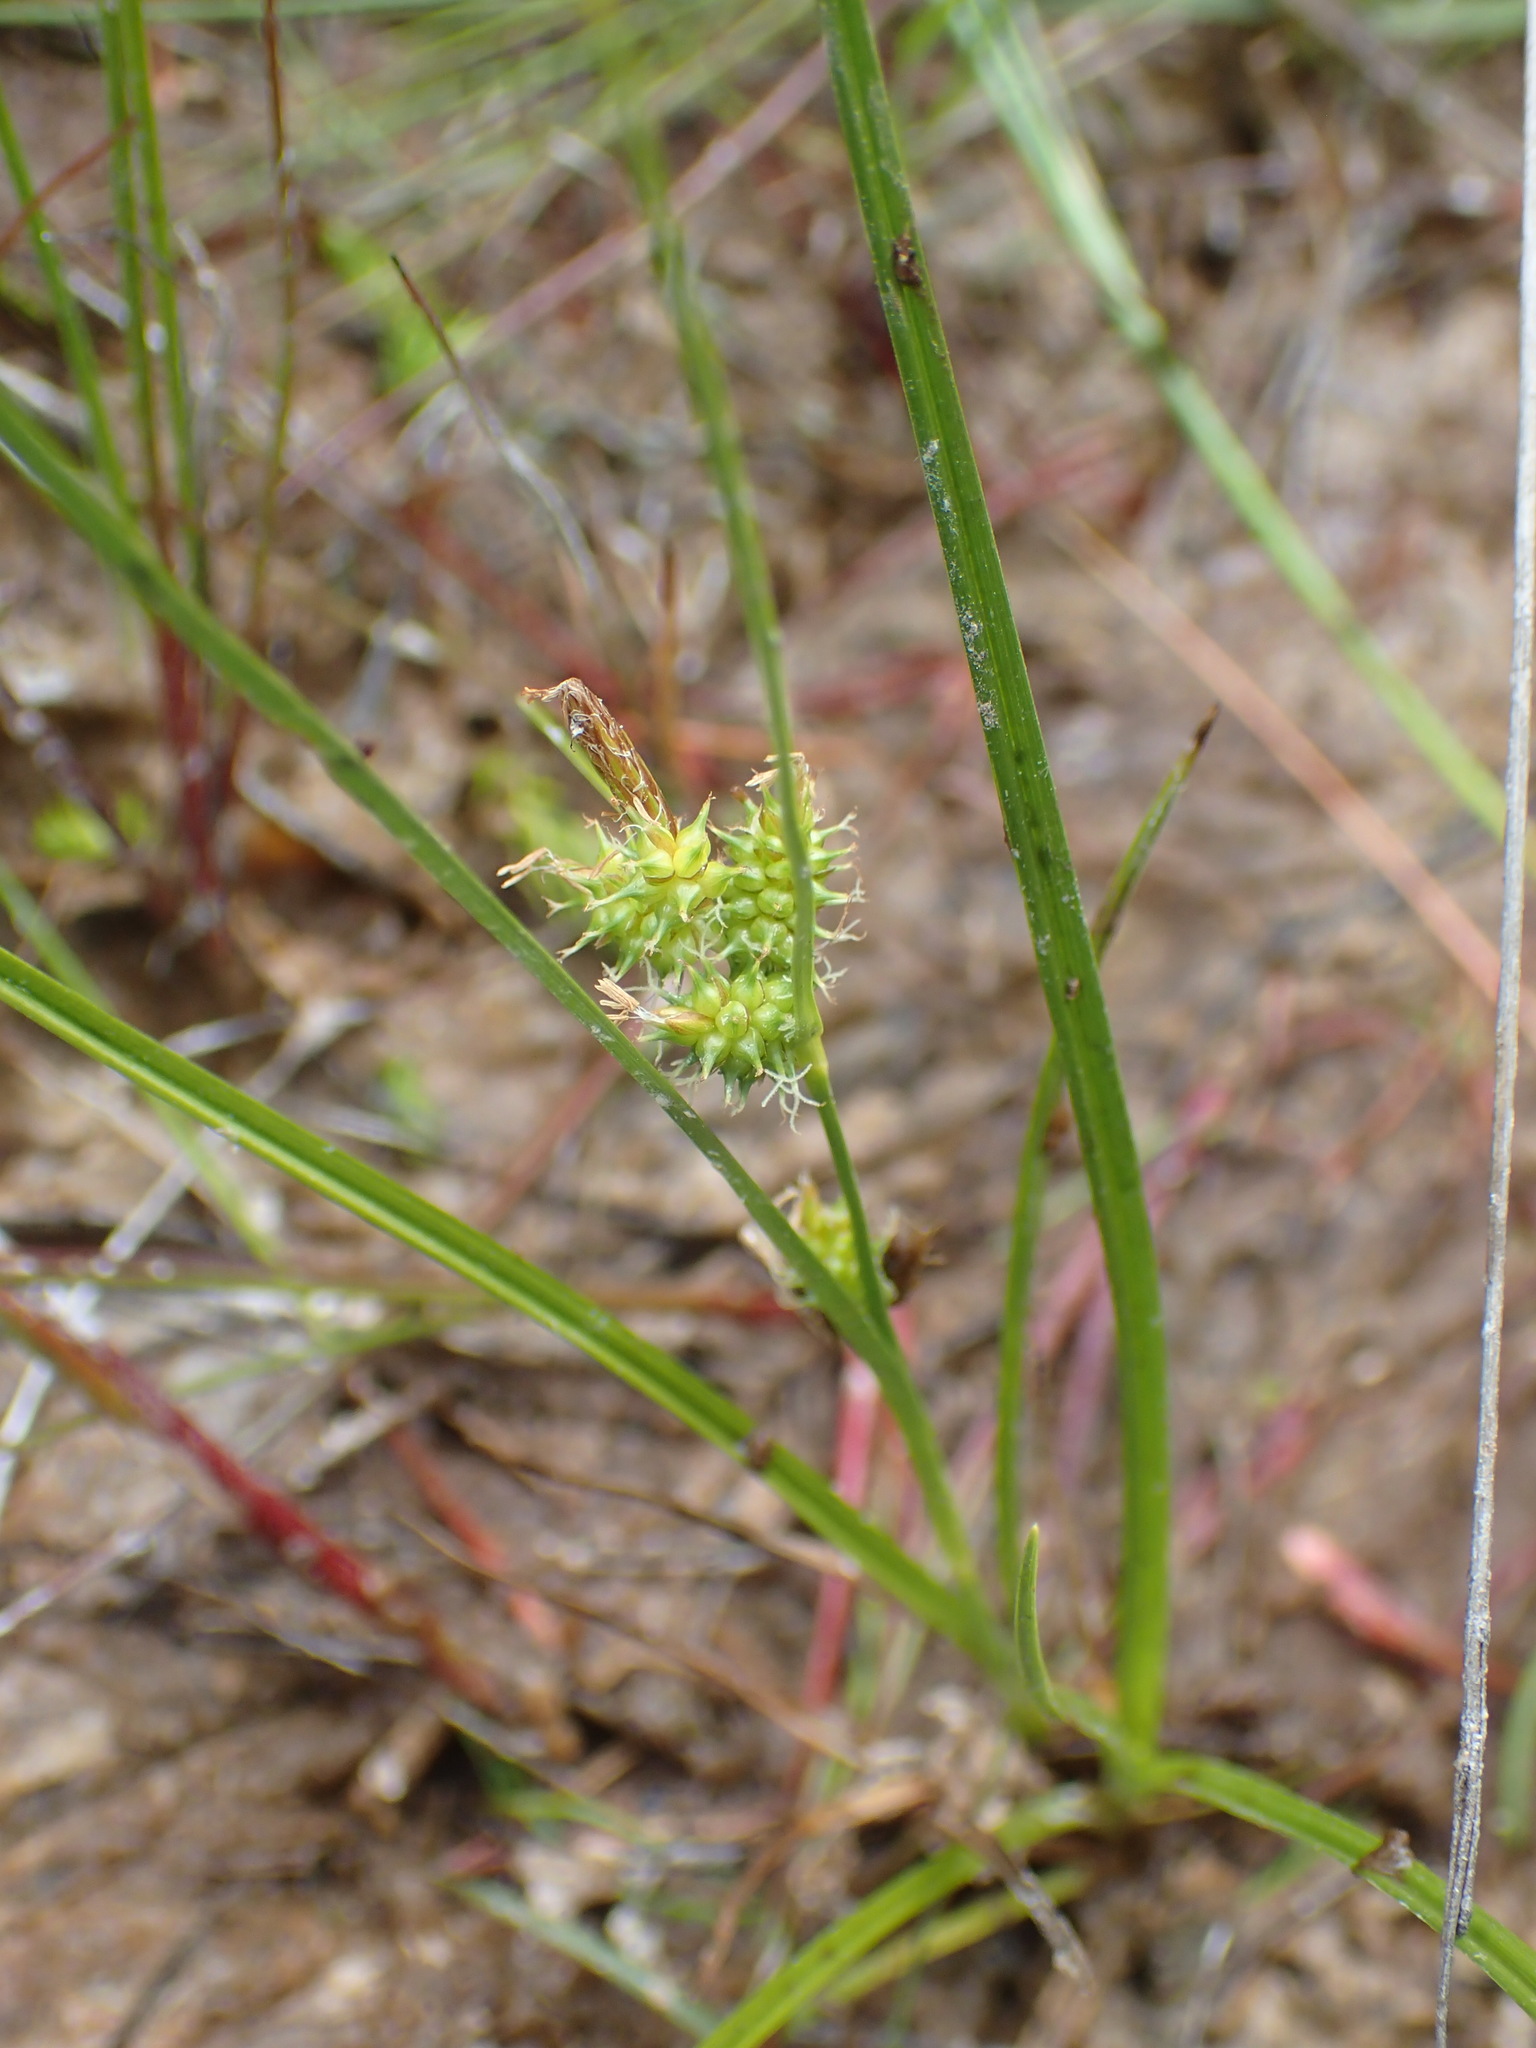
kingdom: Plantae
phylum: Tracheophyta
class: Liliopsida
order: Poales
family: Cyperaceae
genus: Carex
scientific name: Carex
